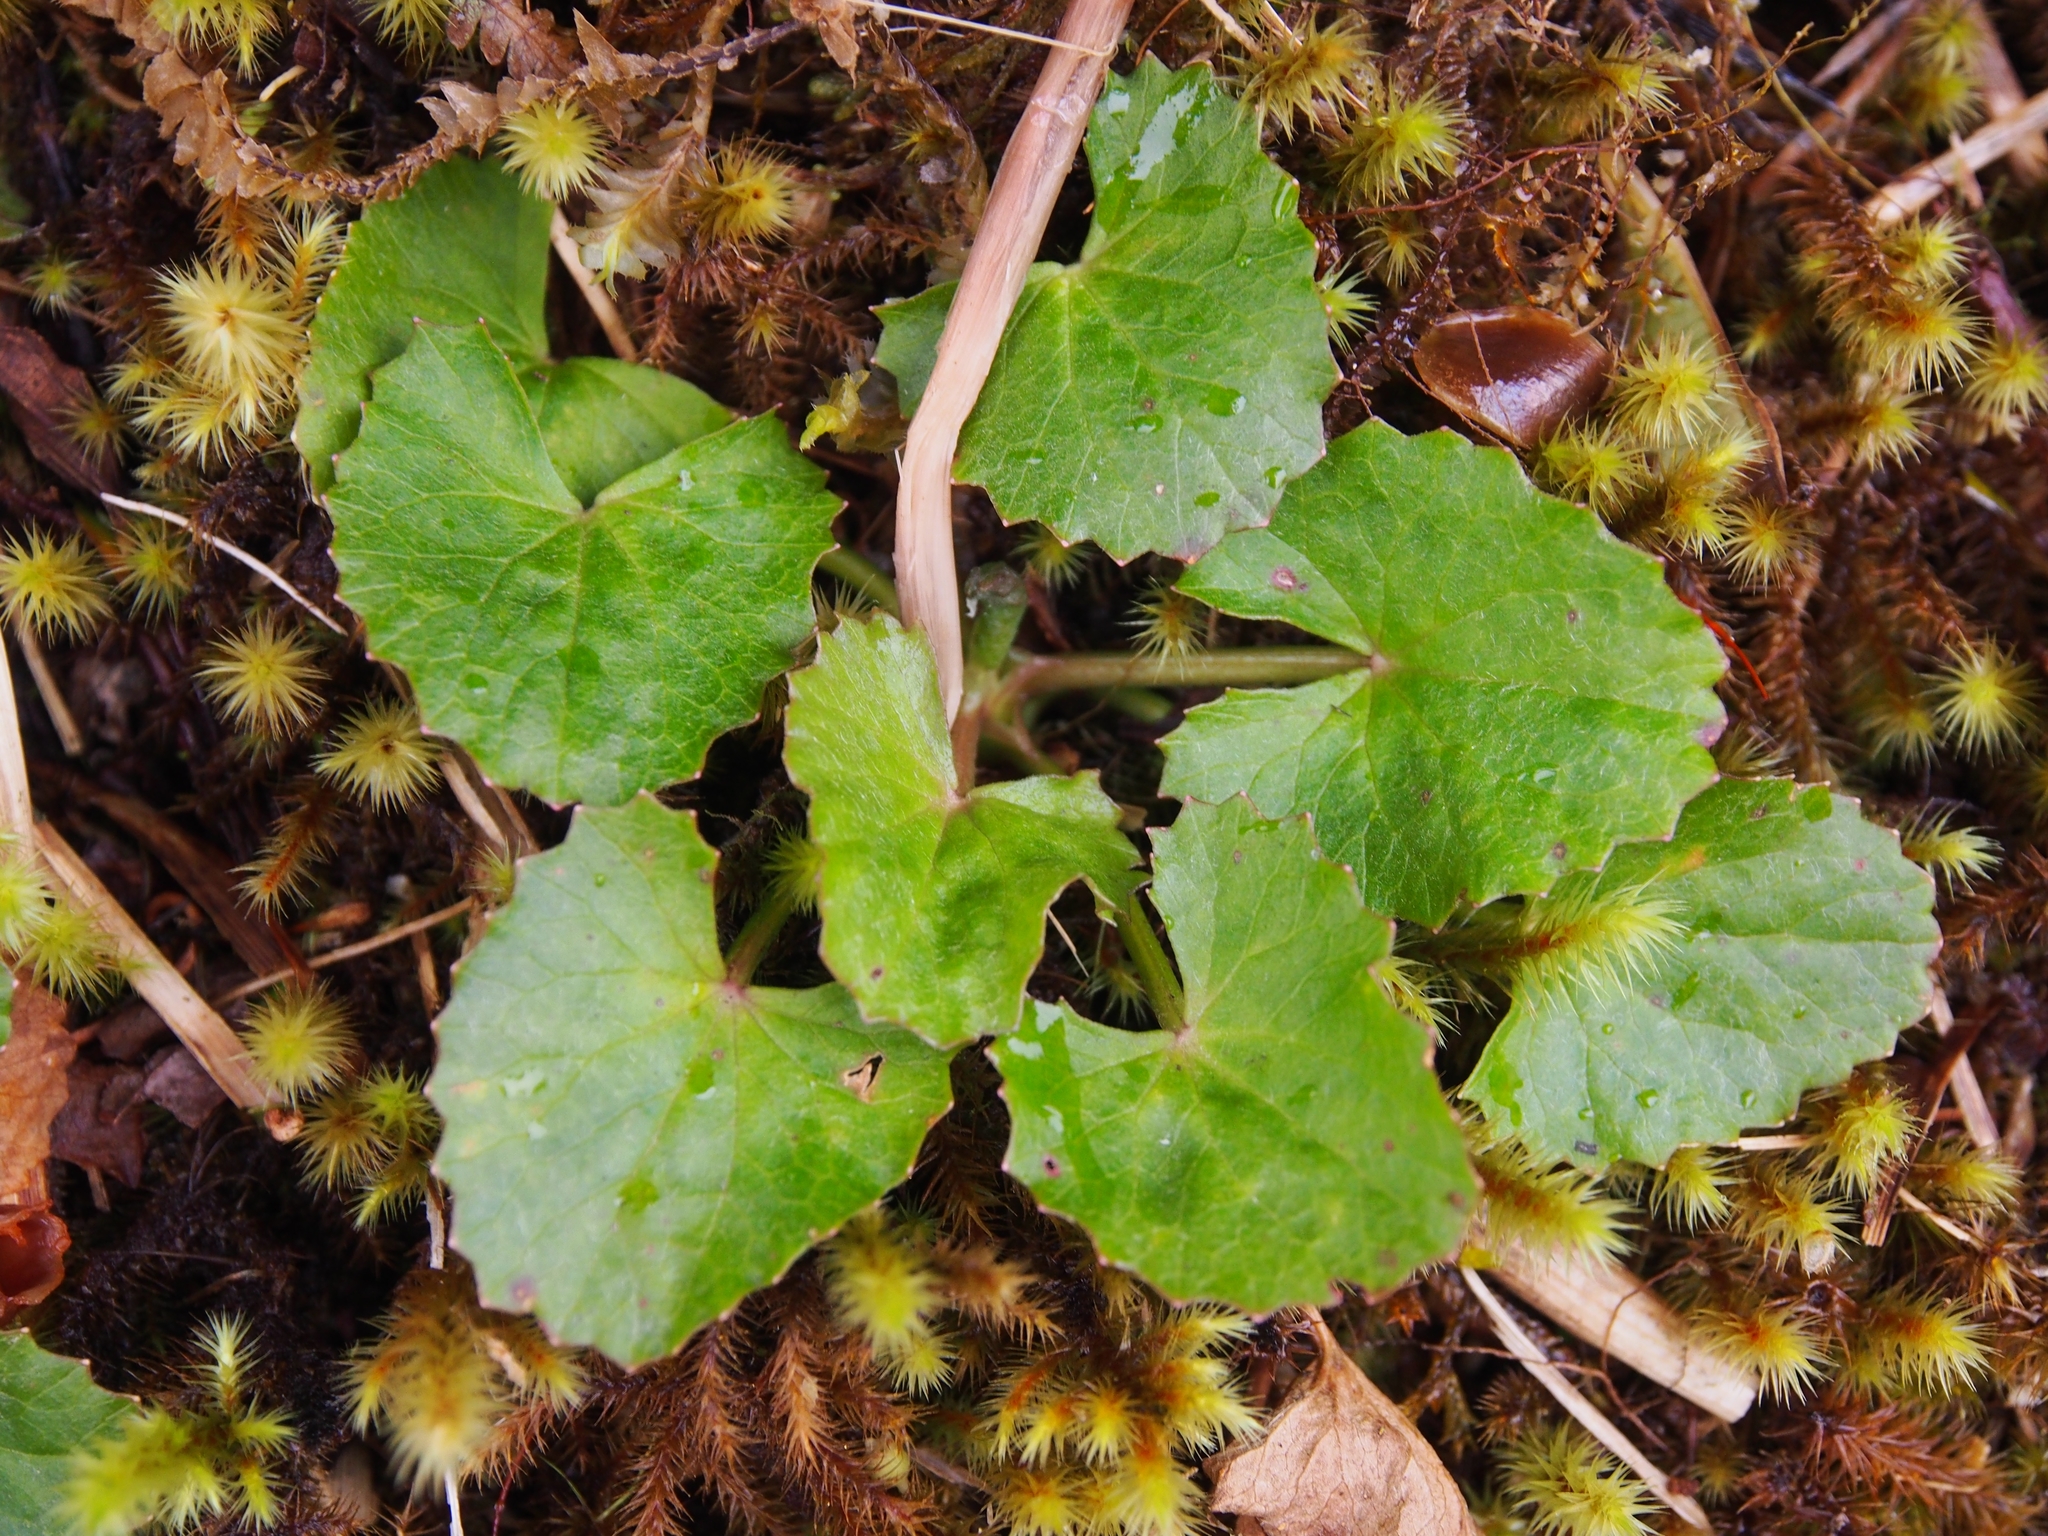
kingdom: Plantae
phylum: Tracheophyta
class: Magnoliopsida
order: Apiales
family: Apiaceae
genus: Centella
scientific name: Centella erecta
